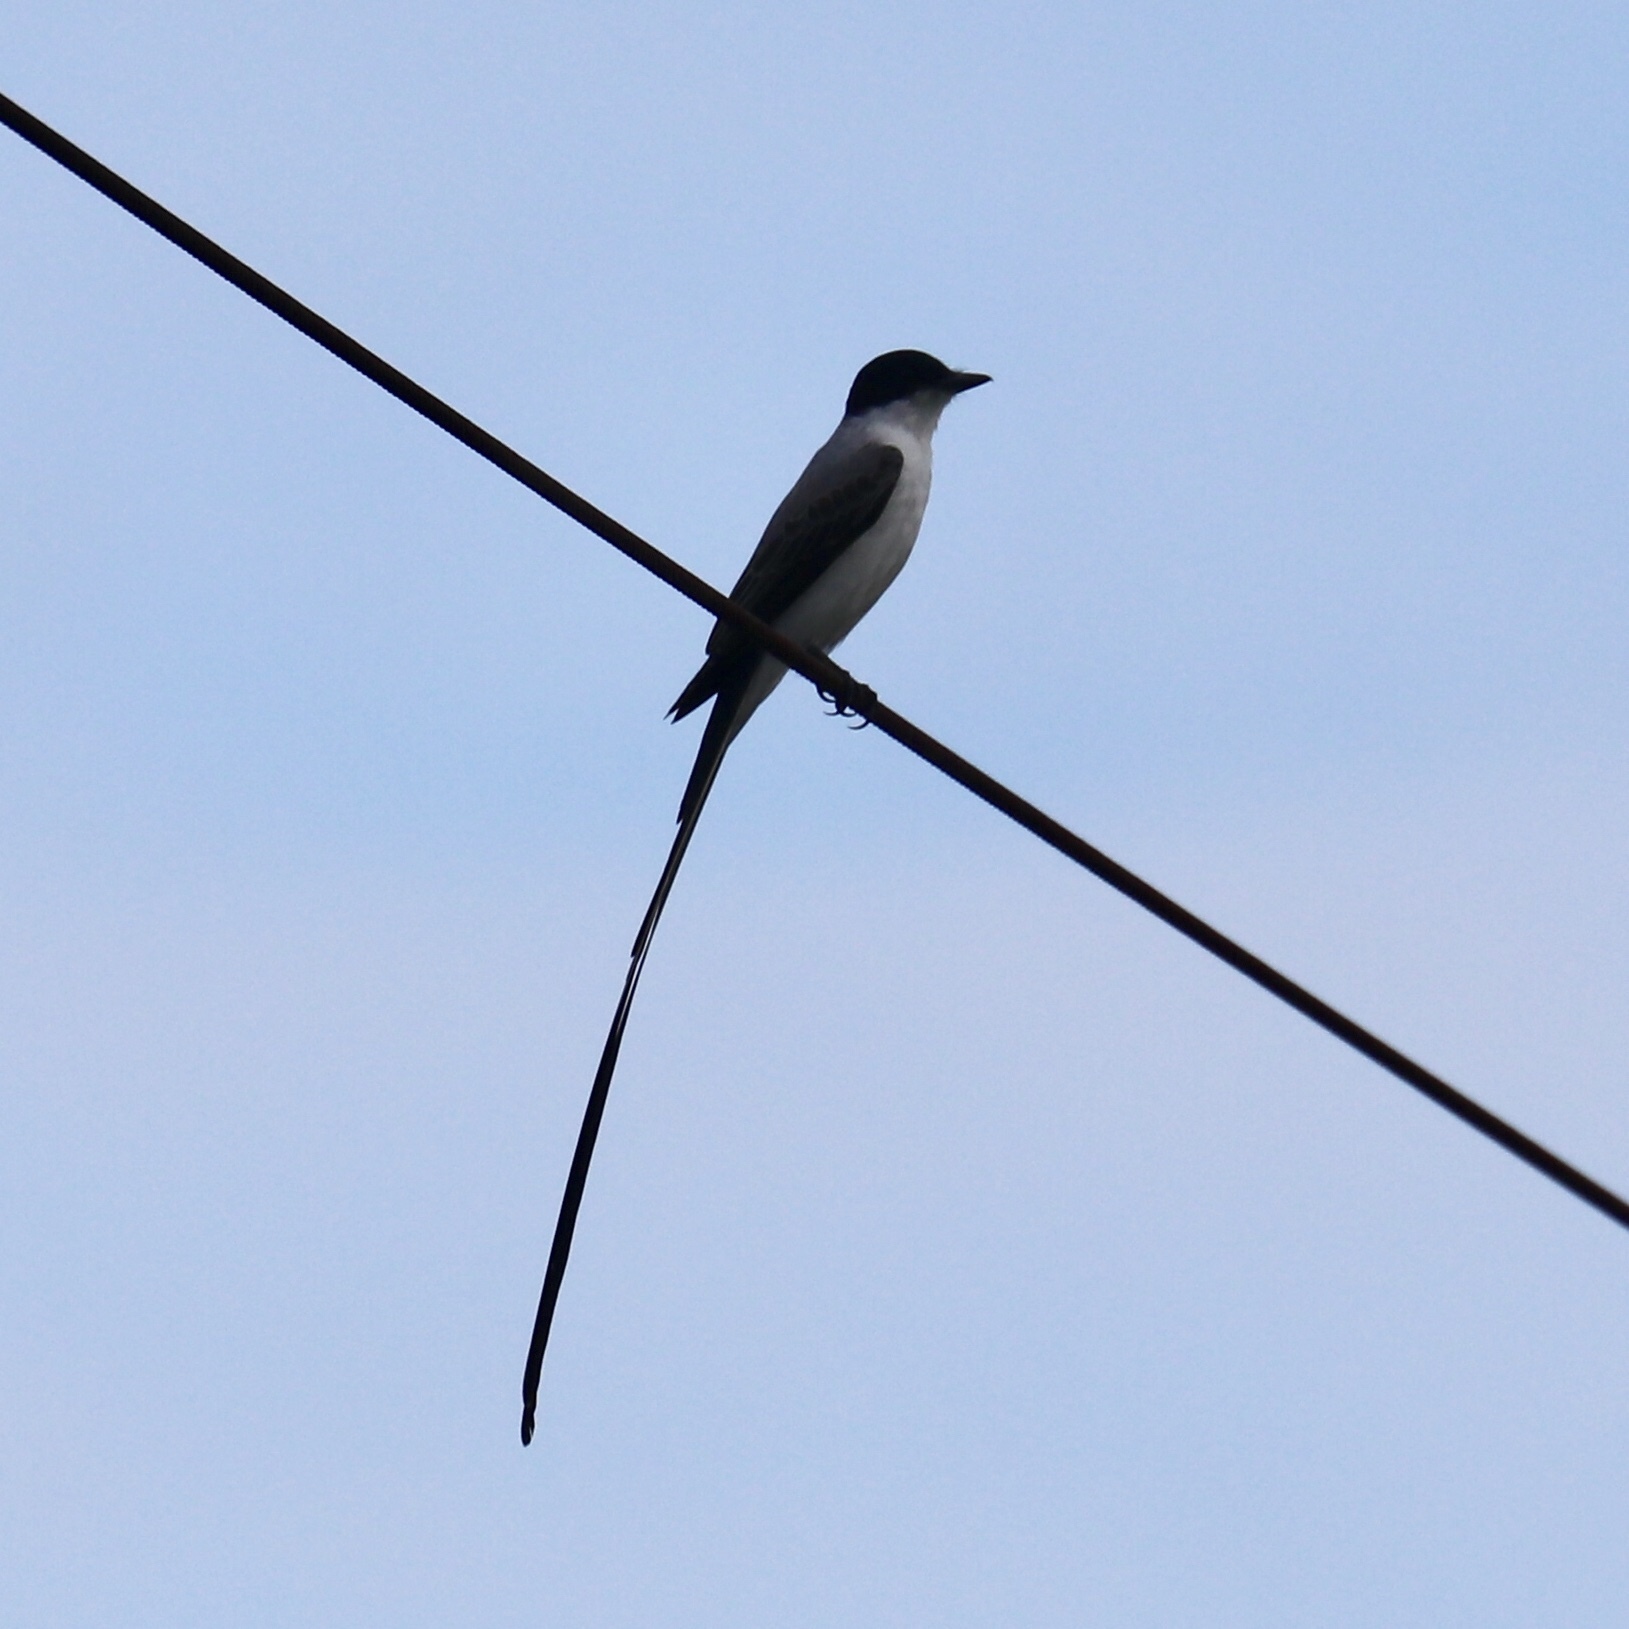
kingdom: Animalia
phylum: Chordata
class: Aves
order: Passeriformes
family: Tyrannidae
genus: Tyrannus
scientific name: Tyrannus savana
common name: Fork-tailed flycatcher
